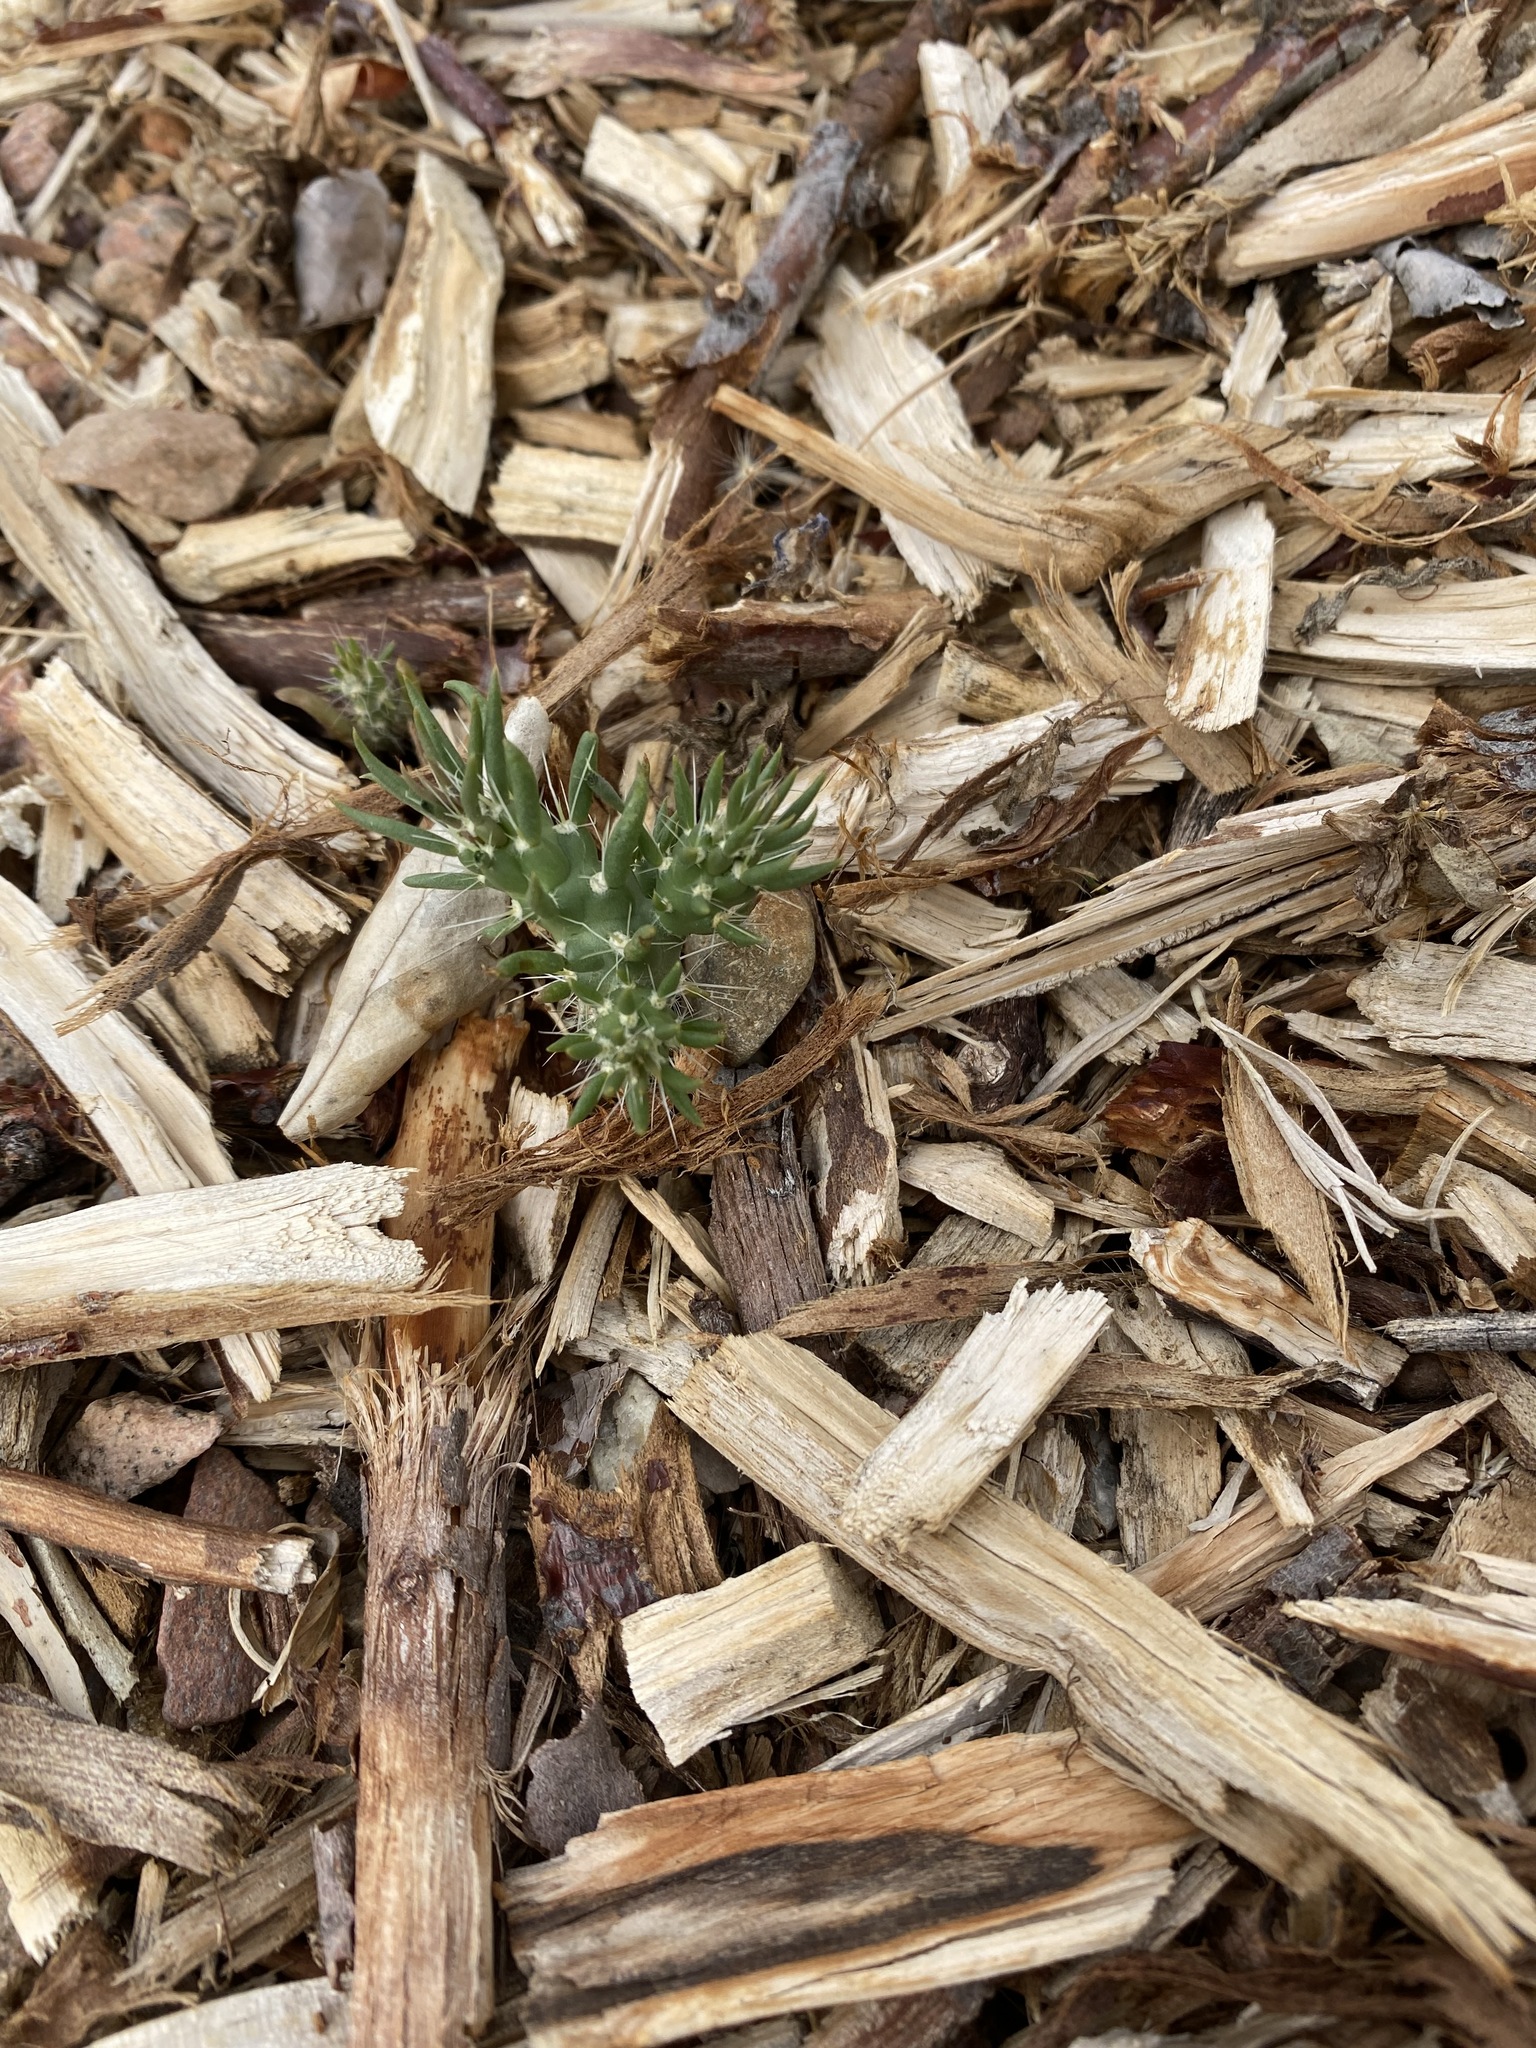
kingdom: Plantae
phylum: Tracheophyta
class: Magnoliopsida
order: Caryophyllales
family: Cactaceae
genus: Cylindropuntia
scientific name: Cylindropuntia imbricata
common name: Candelabrum cactus
